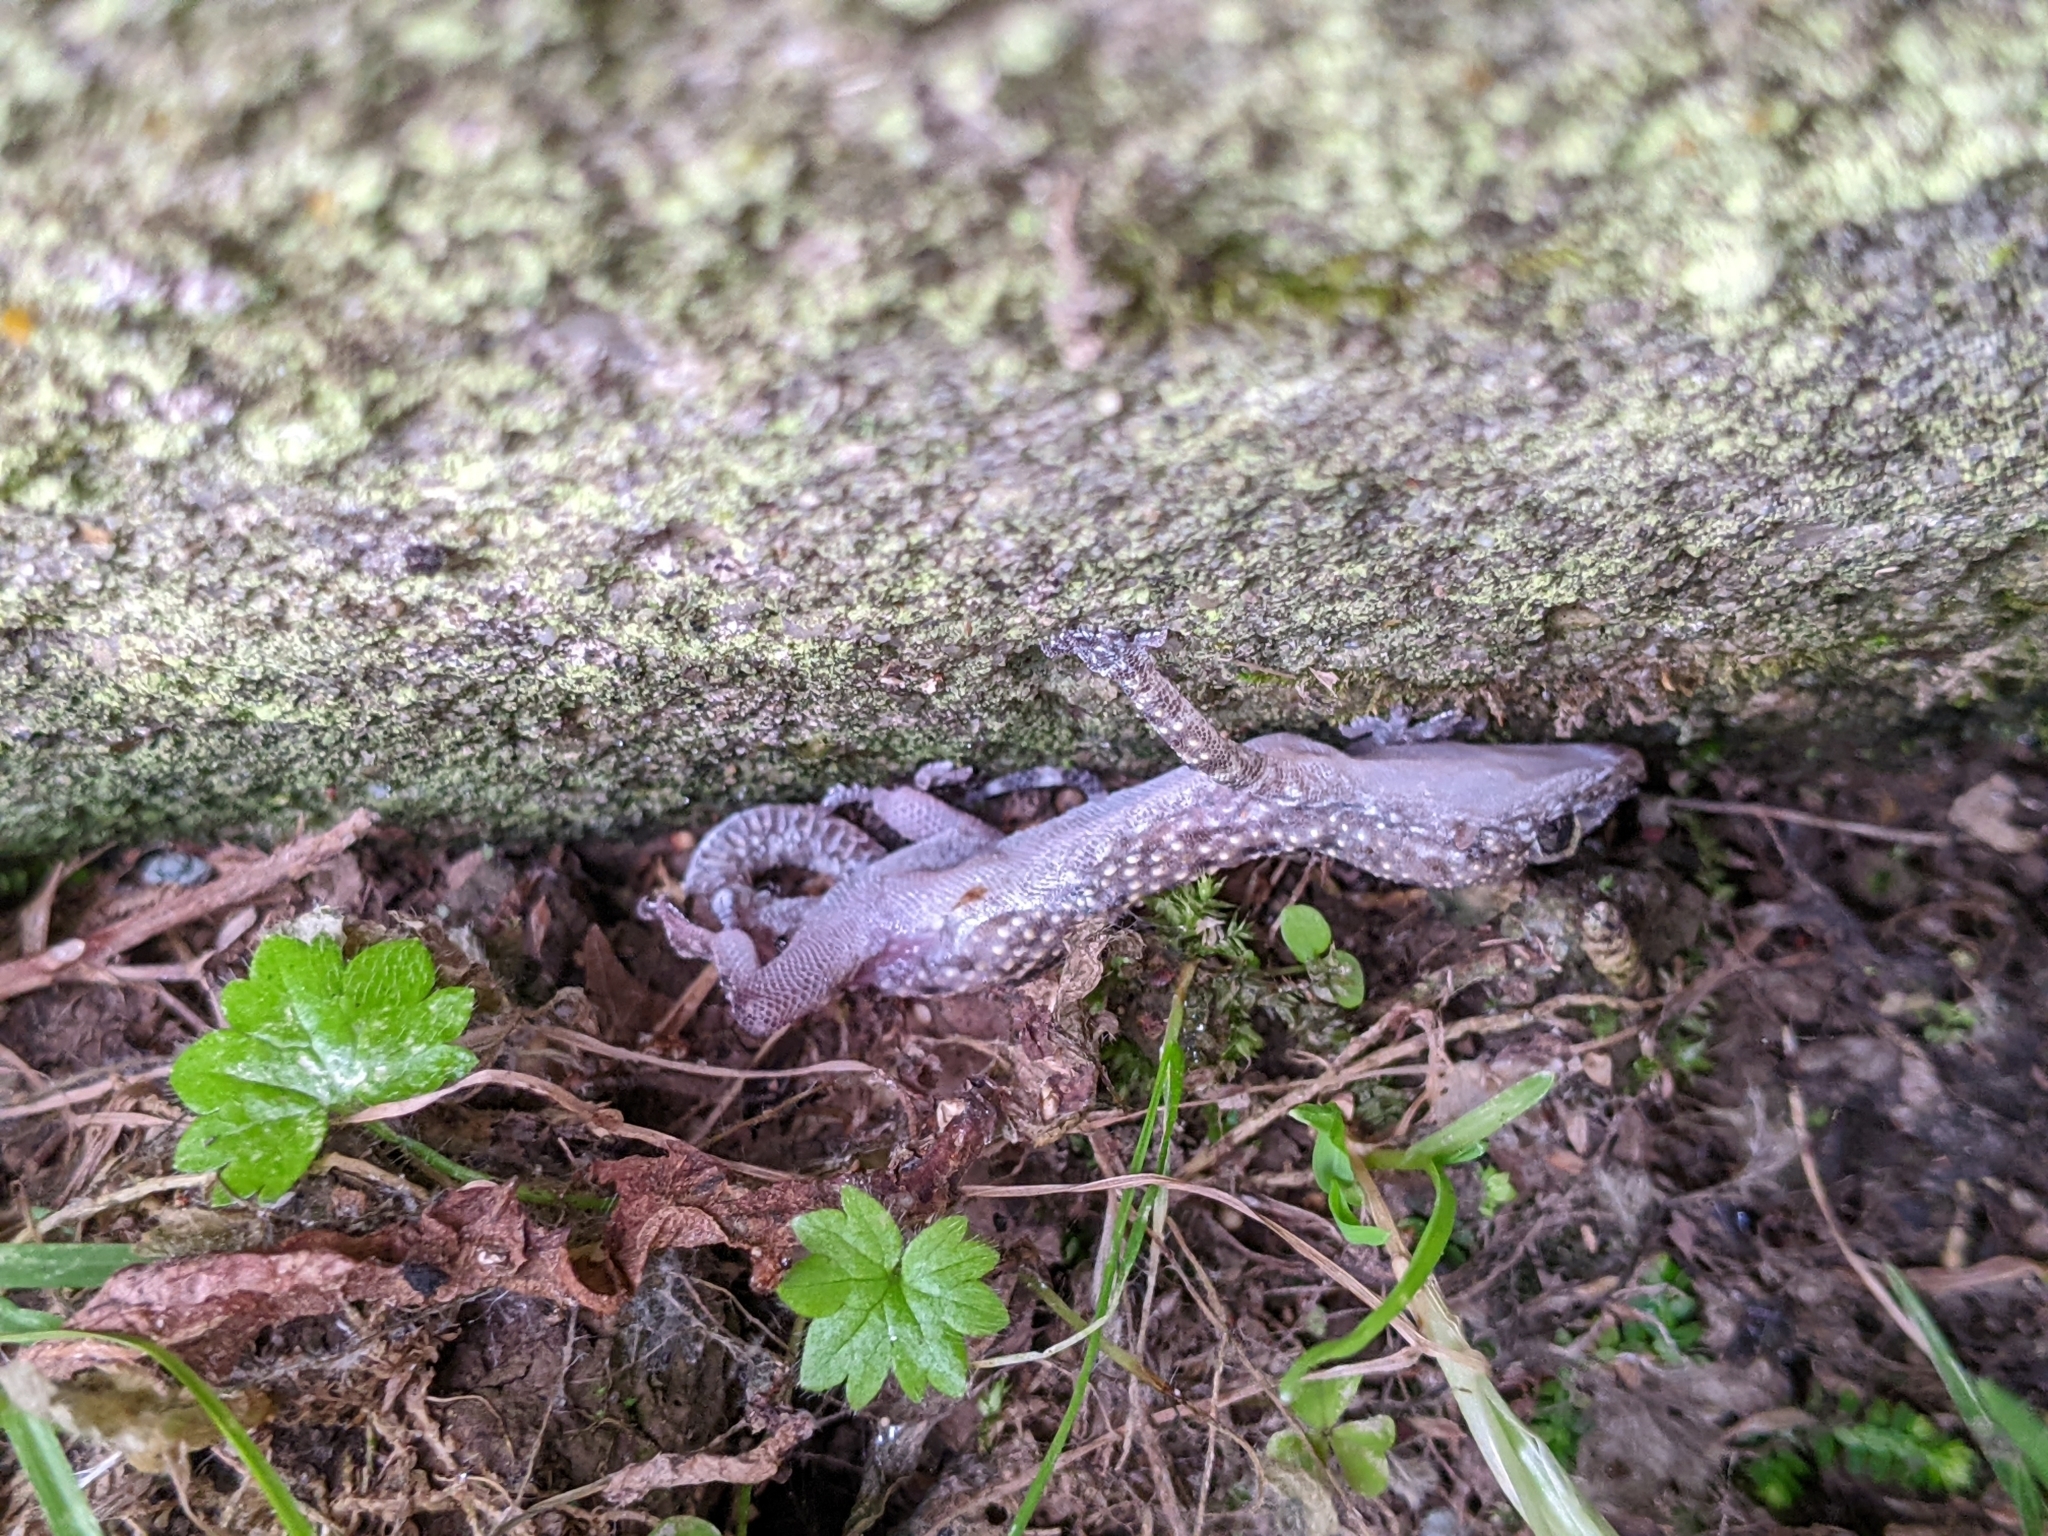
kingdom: Animalia
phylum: Chordata
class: Squamata
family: Gekkonidae
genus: Hemidactylus
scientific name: Hemidactylus turcicus
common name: Turkish gecko
